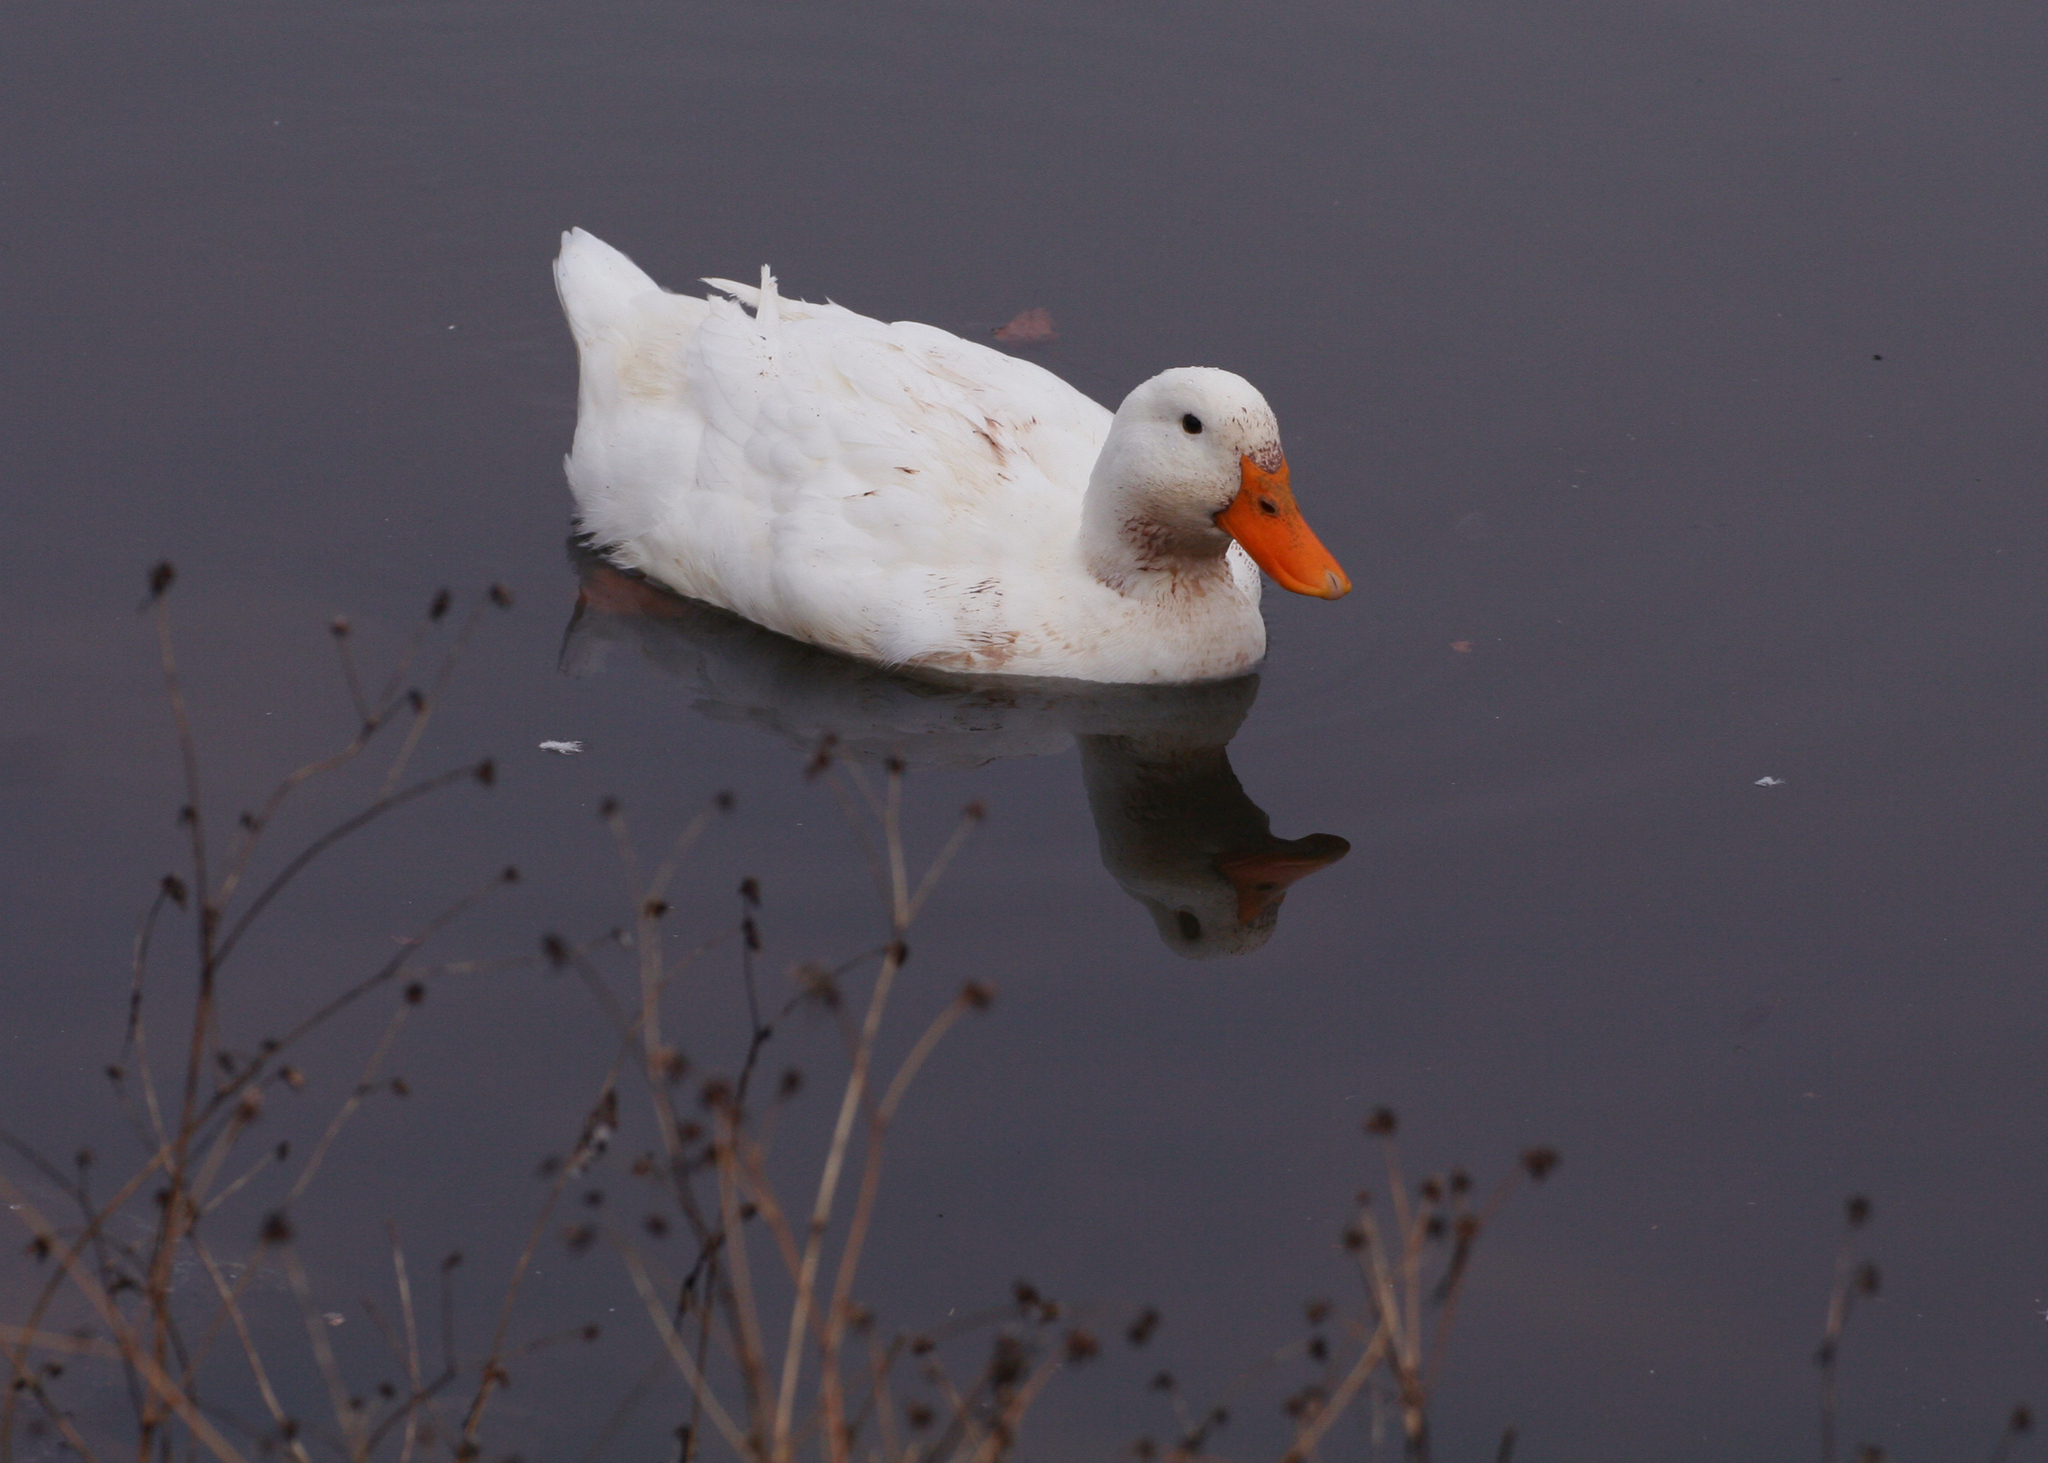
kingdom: Animalia
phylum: Chordata
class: Aves
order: Anseriformes
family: Anatidae
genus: Anas
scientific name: Anas platyrhynchos
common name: Mallard
